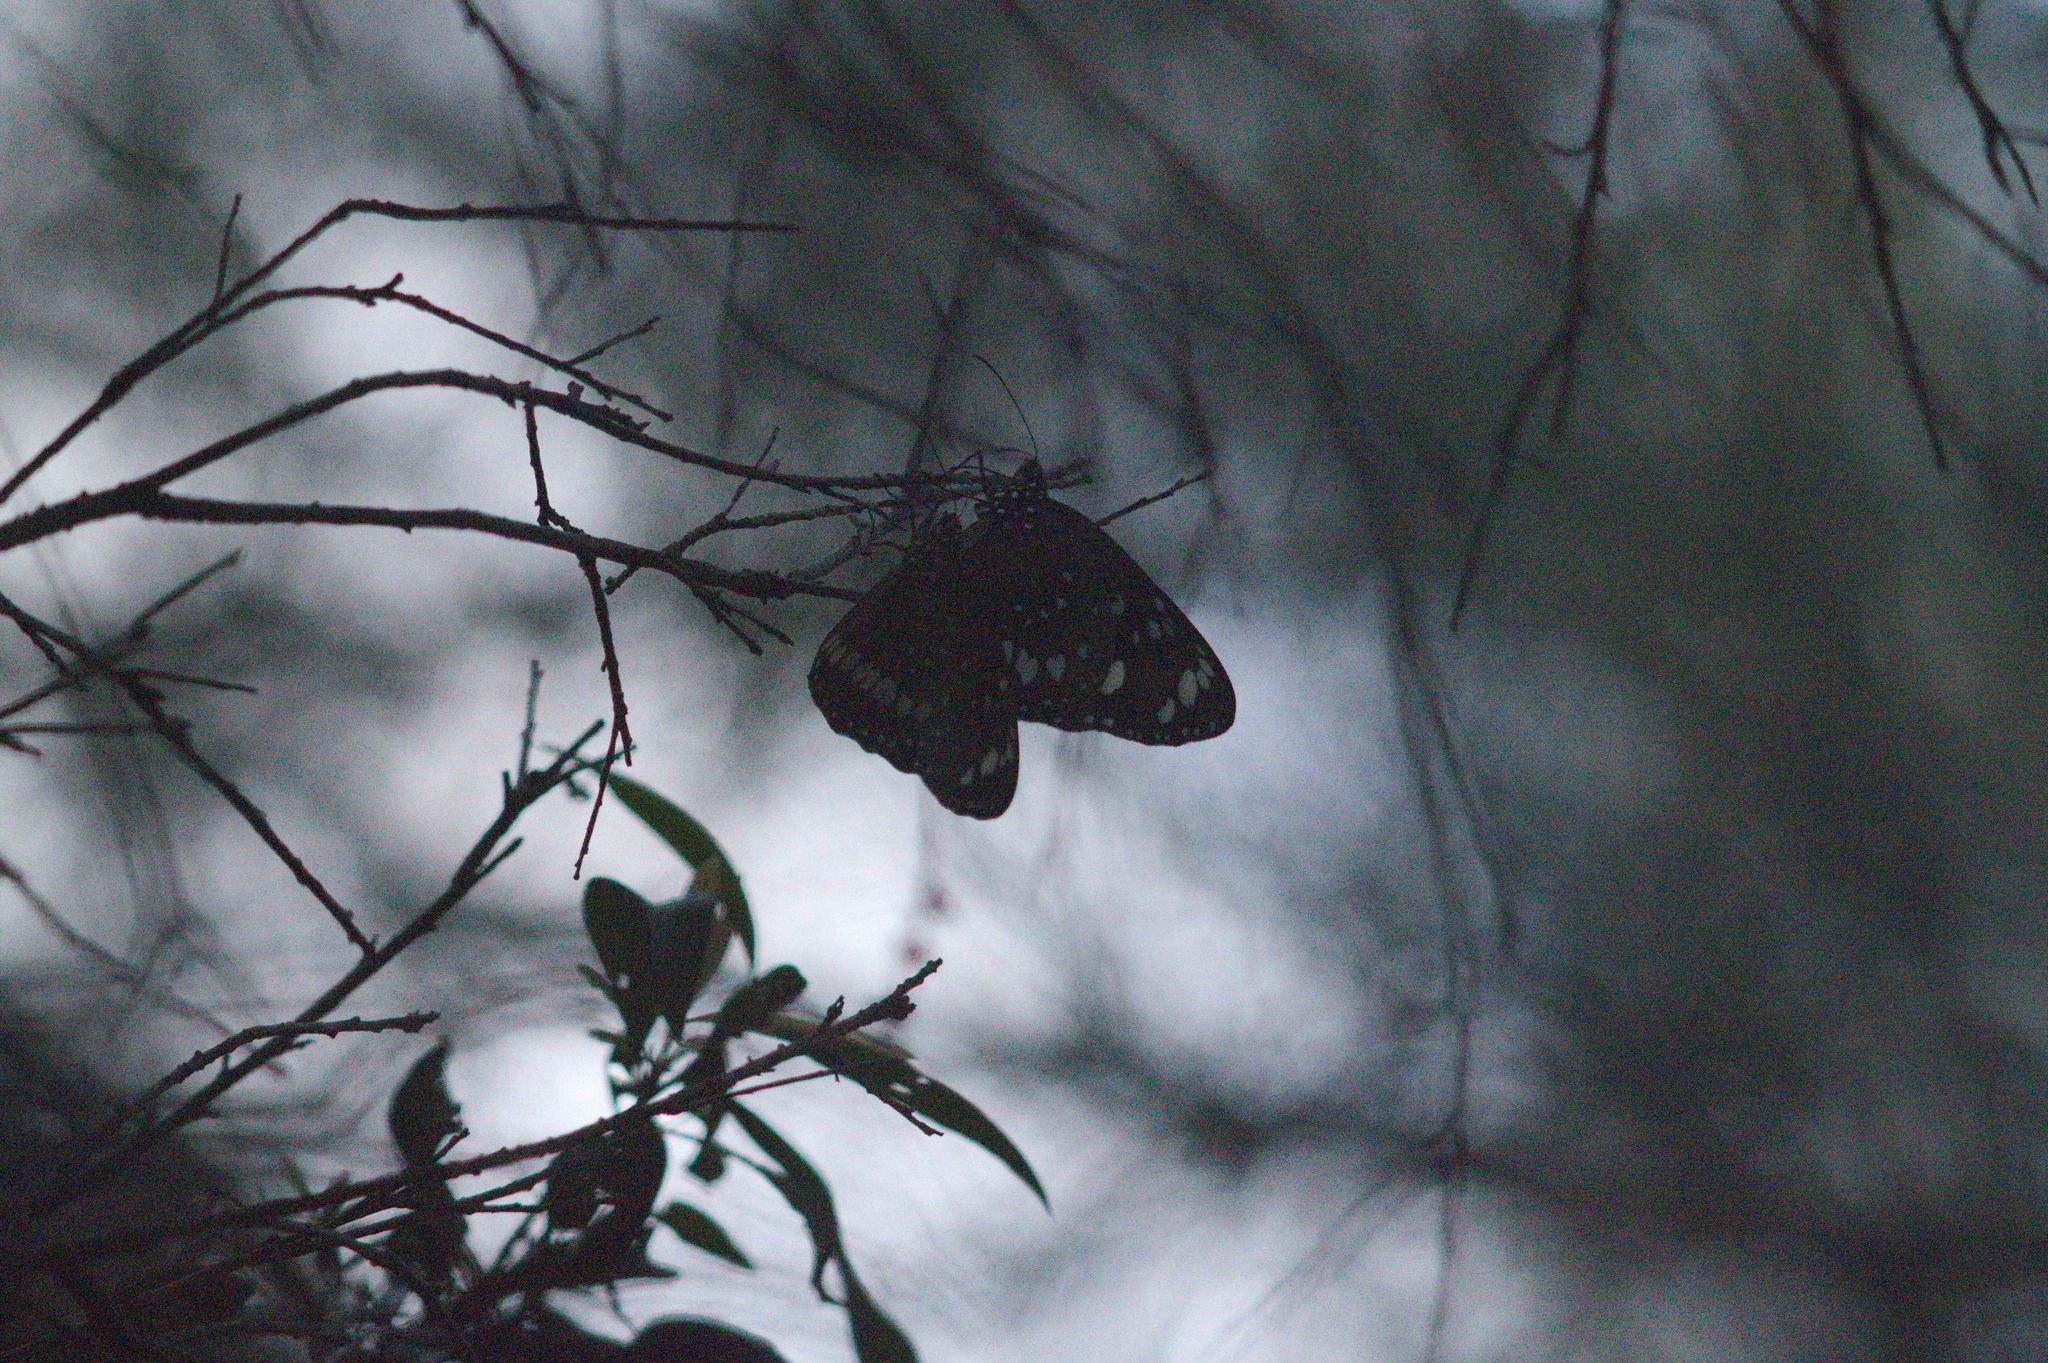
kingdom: Animalia
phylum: Arthropoda
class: Insecta
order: Lepidoptera
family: Nymphalidae
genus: Euploea
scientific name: Euploea core
